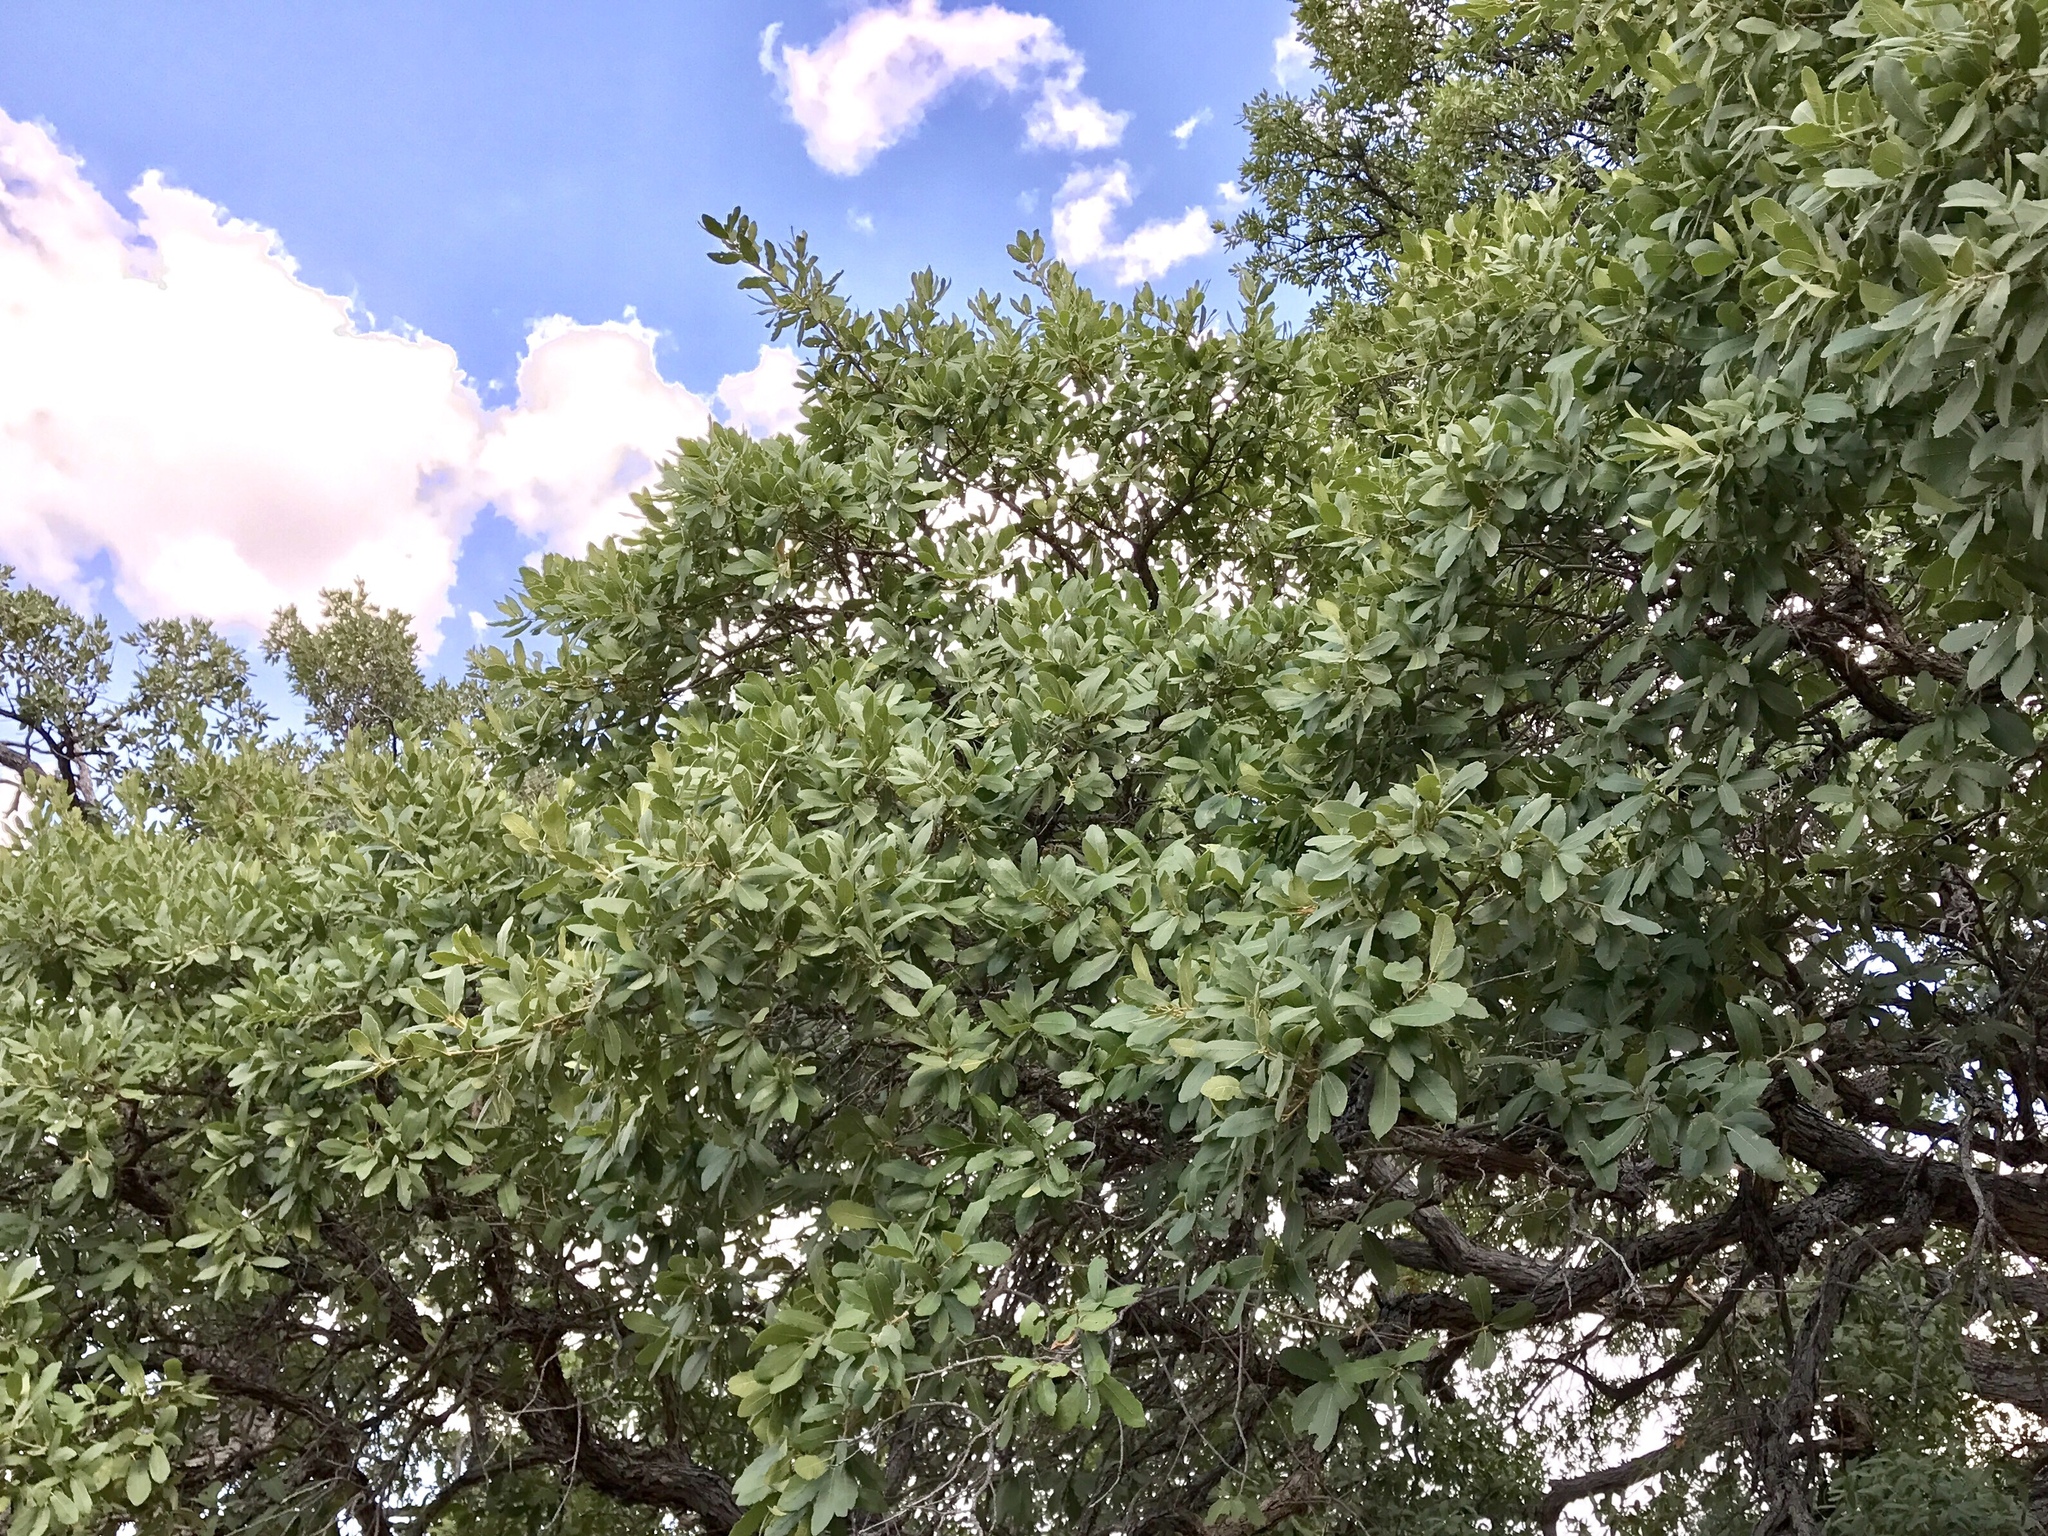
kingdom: Plantae
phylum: Tracheophyta
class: Magnoliopsida
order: Fagales
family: Fagaceae
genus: Quercus
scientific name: Quercus oblongifolia
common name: Mexican blue oak
